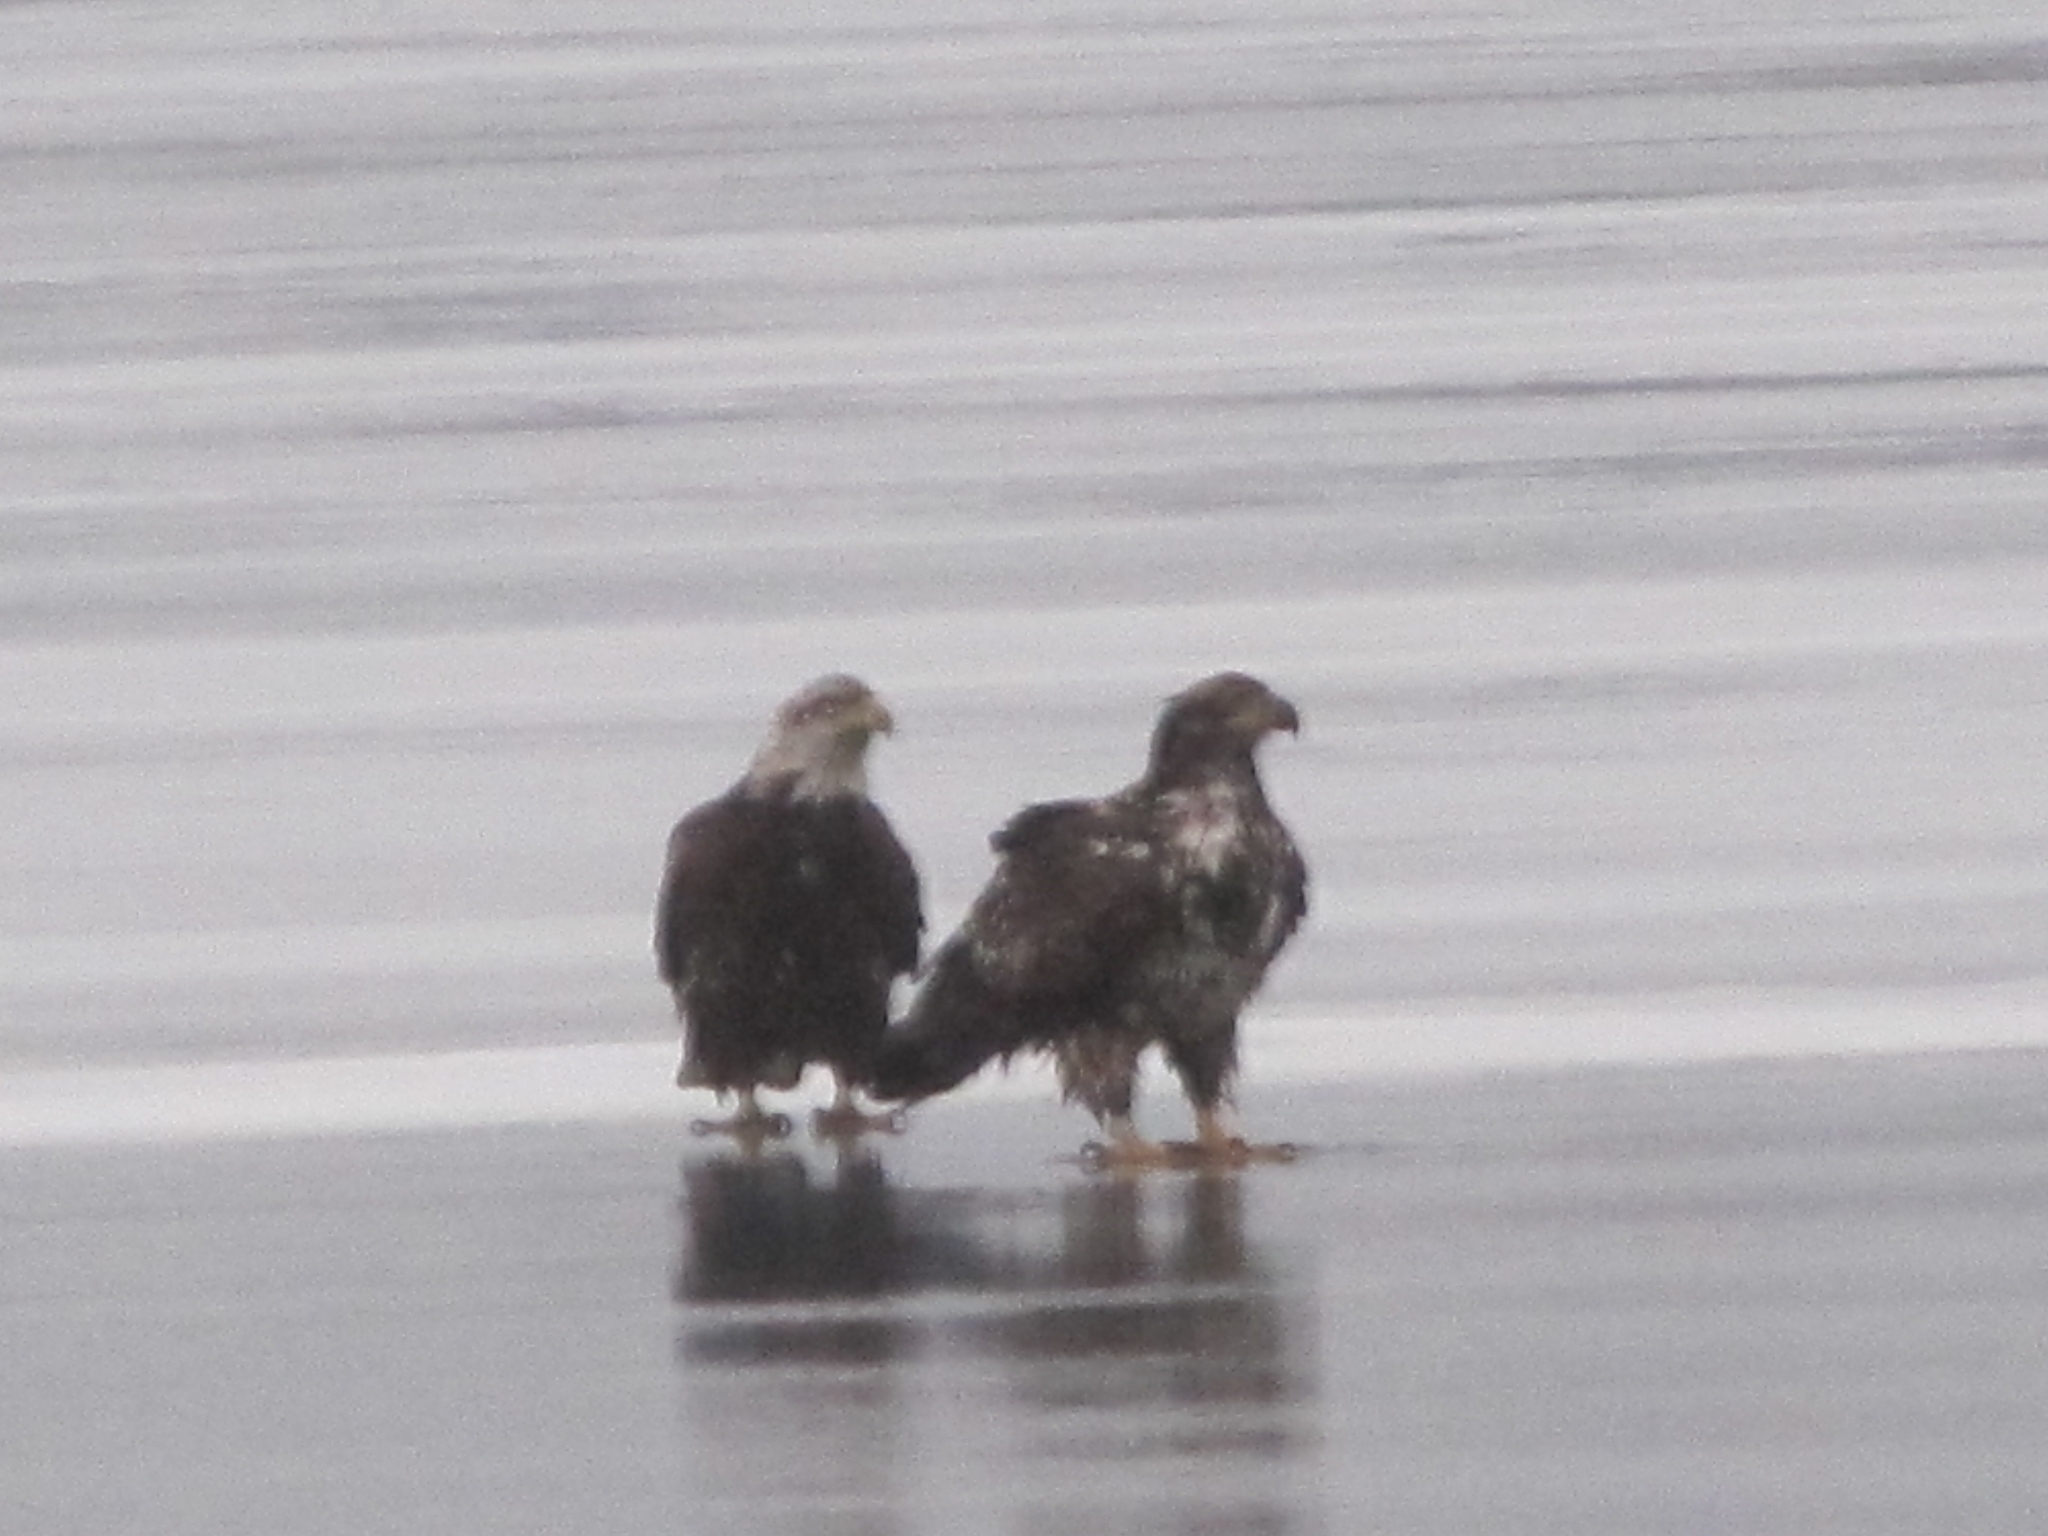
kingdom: Animalia
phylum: Chordata
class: Aves
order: Accipitriformes
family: Accipitridae
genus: Haliaeetus
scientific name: Haliaeetus leucocephalus
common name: Bald eagle
